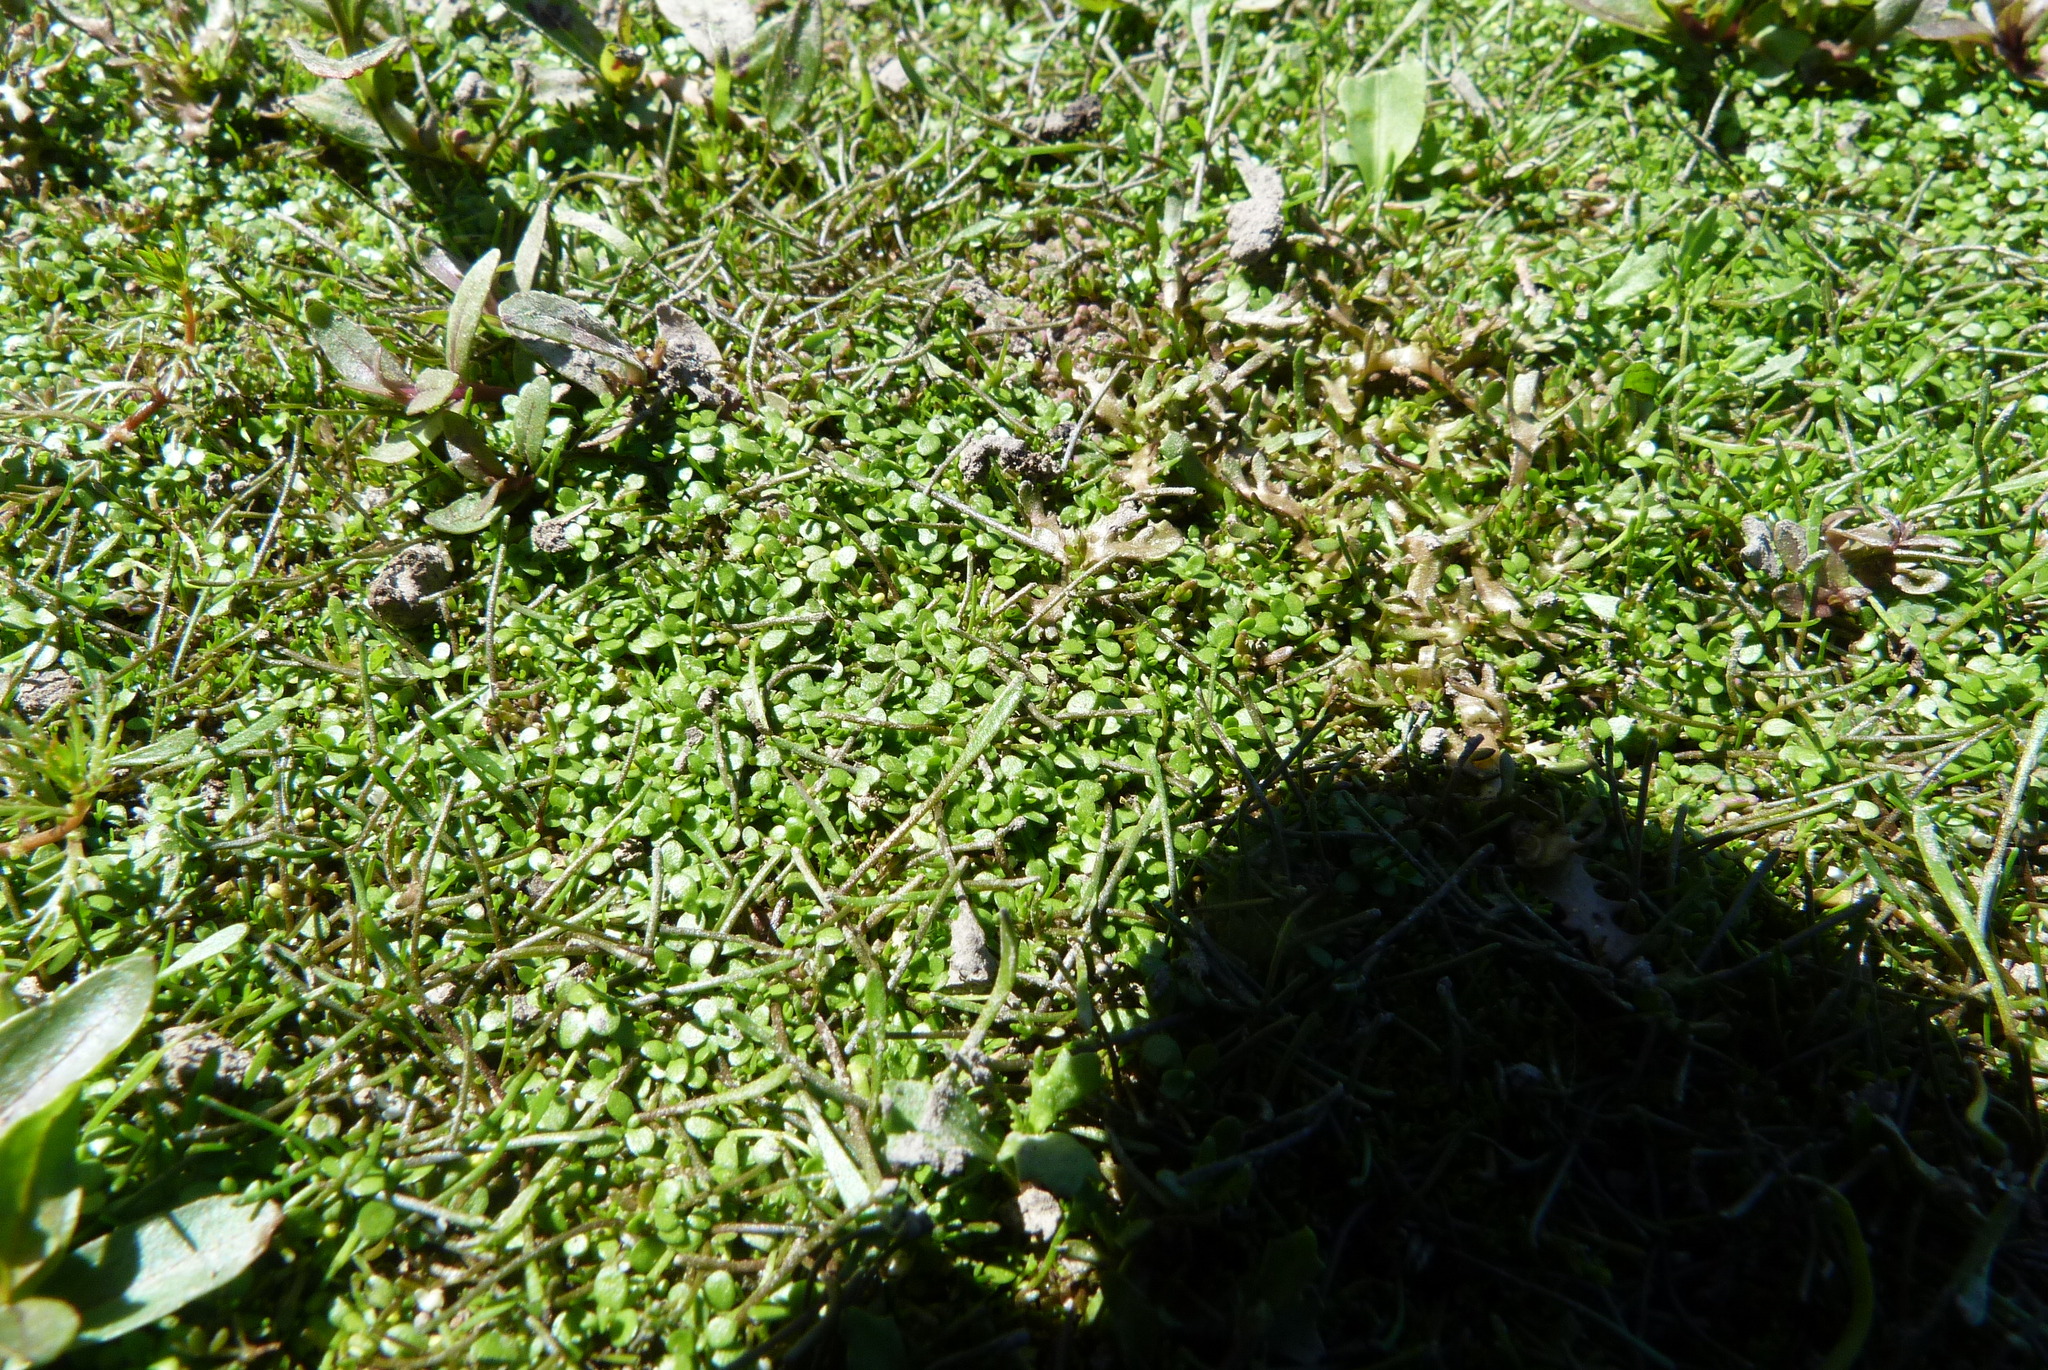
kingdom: Plantae
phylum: Tracheophyta
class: Magnoliopsida
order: Lamiales
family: Plantaginaceae
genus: Callitriche
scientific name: Callitriche stagnalis
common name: Common water-starwort
